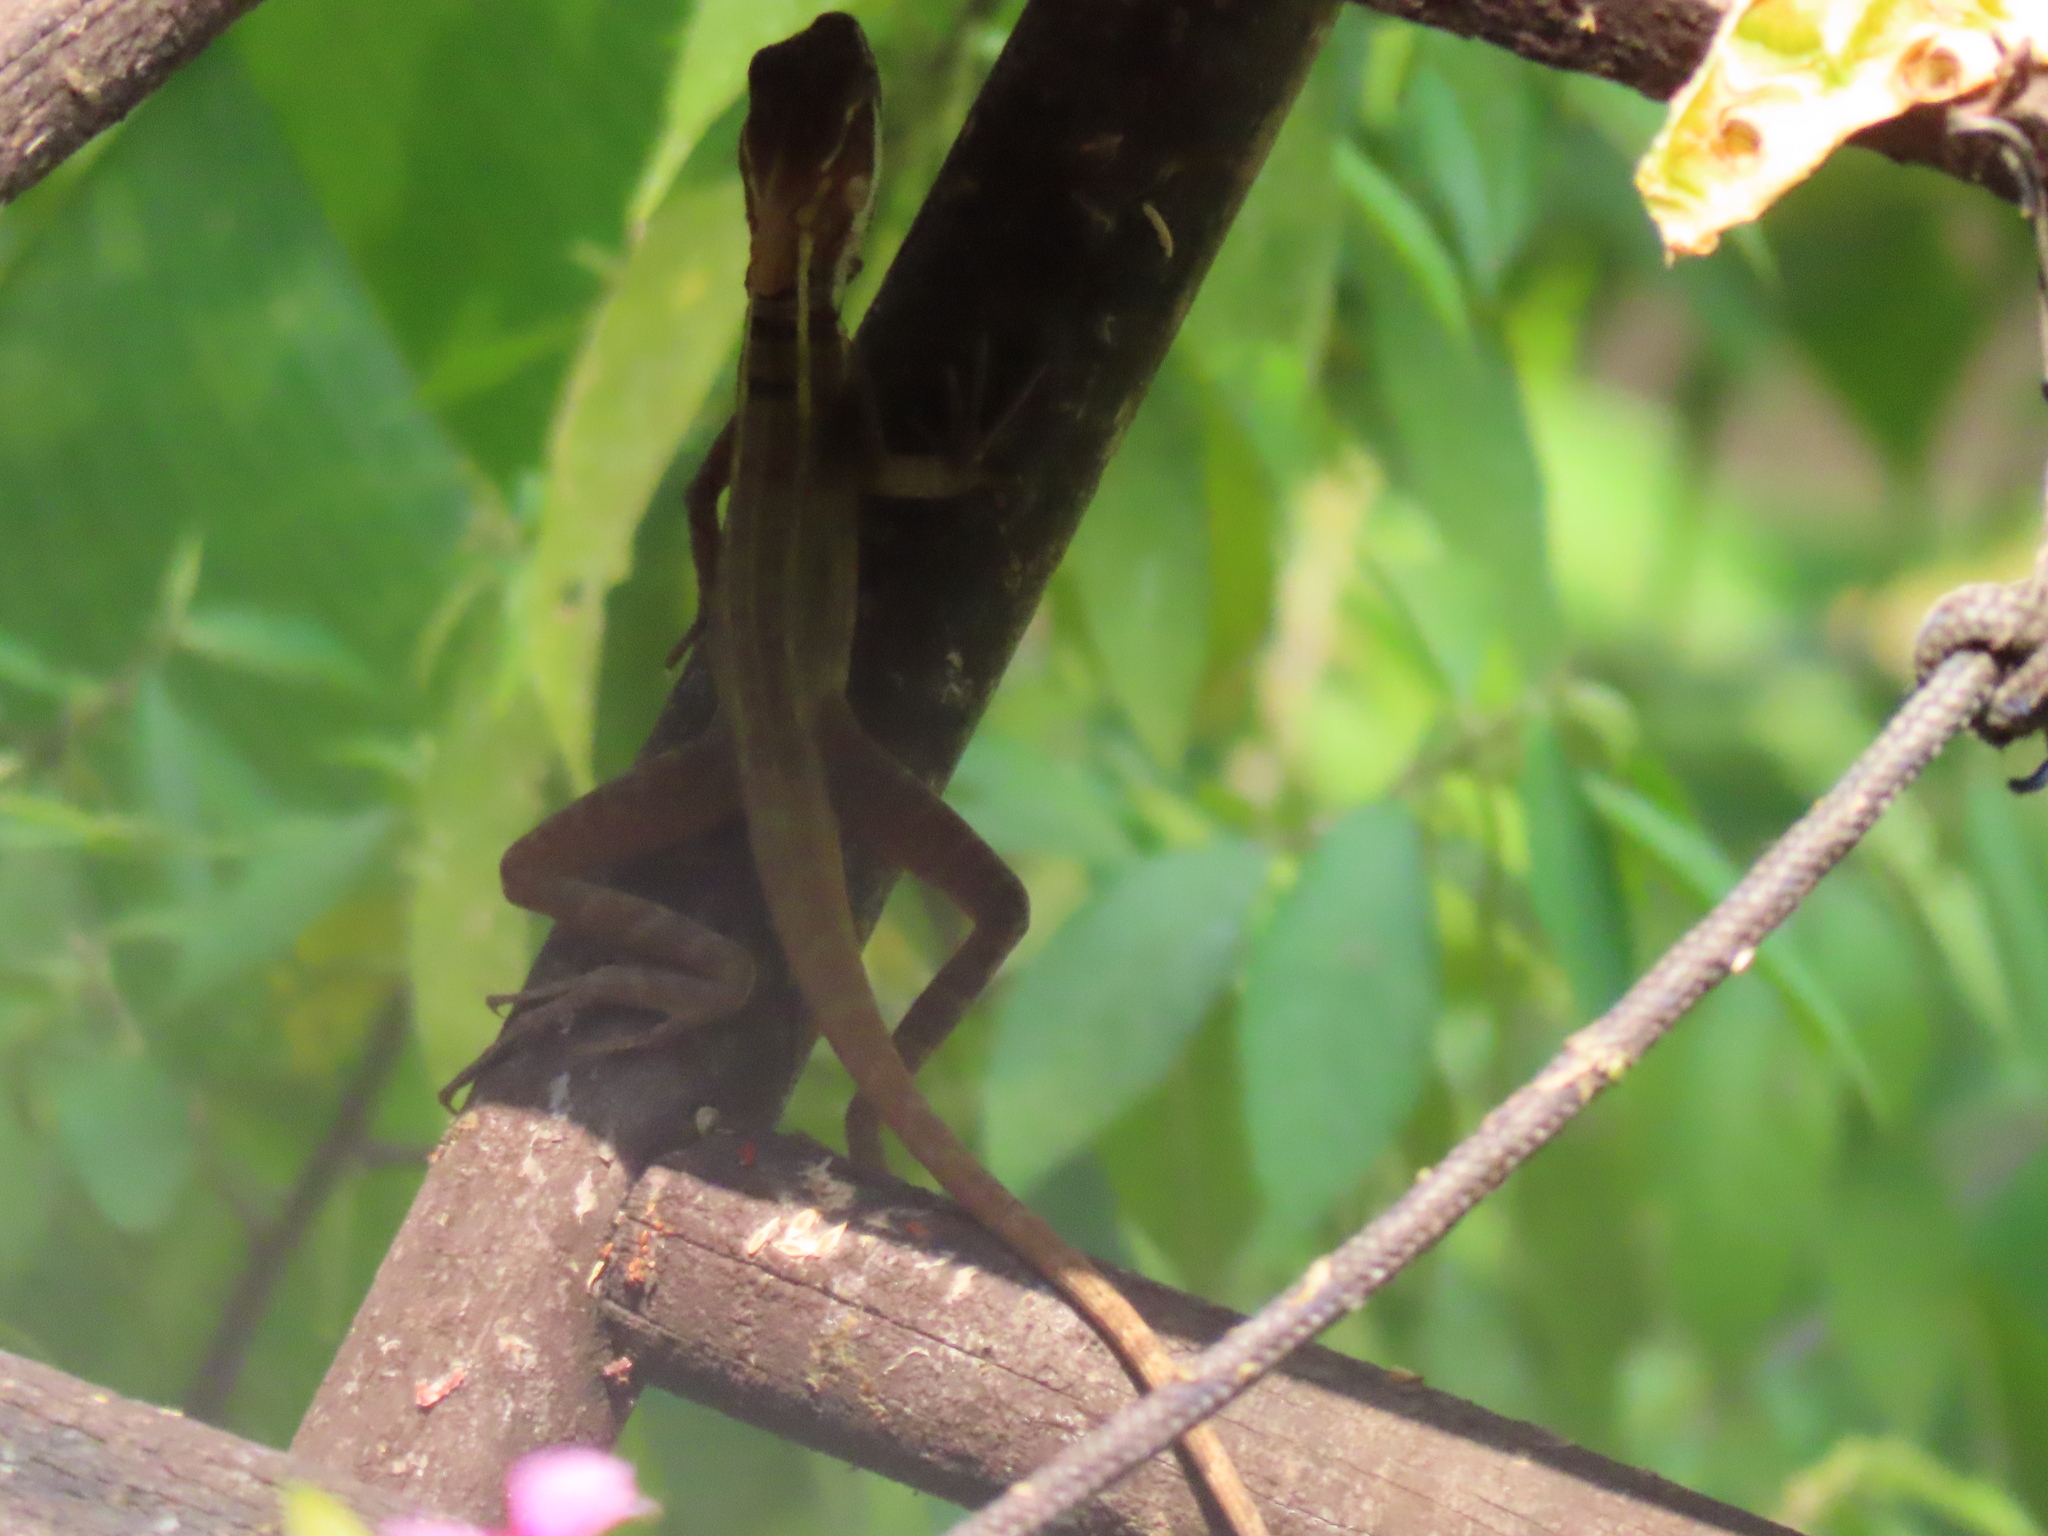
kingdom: Animalia
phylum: Chordata
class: Squamata
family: Corytophanidae
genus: Basiliscus
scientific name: Basiliscus vittatus
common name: Brown basilisk
